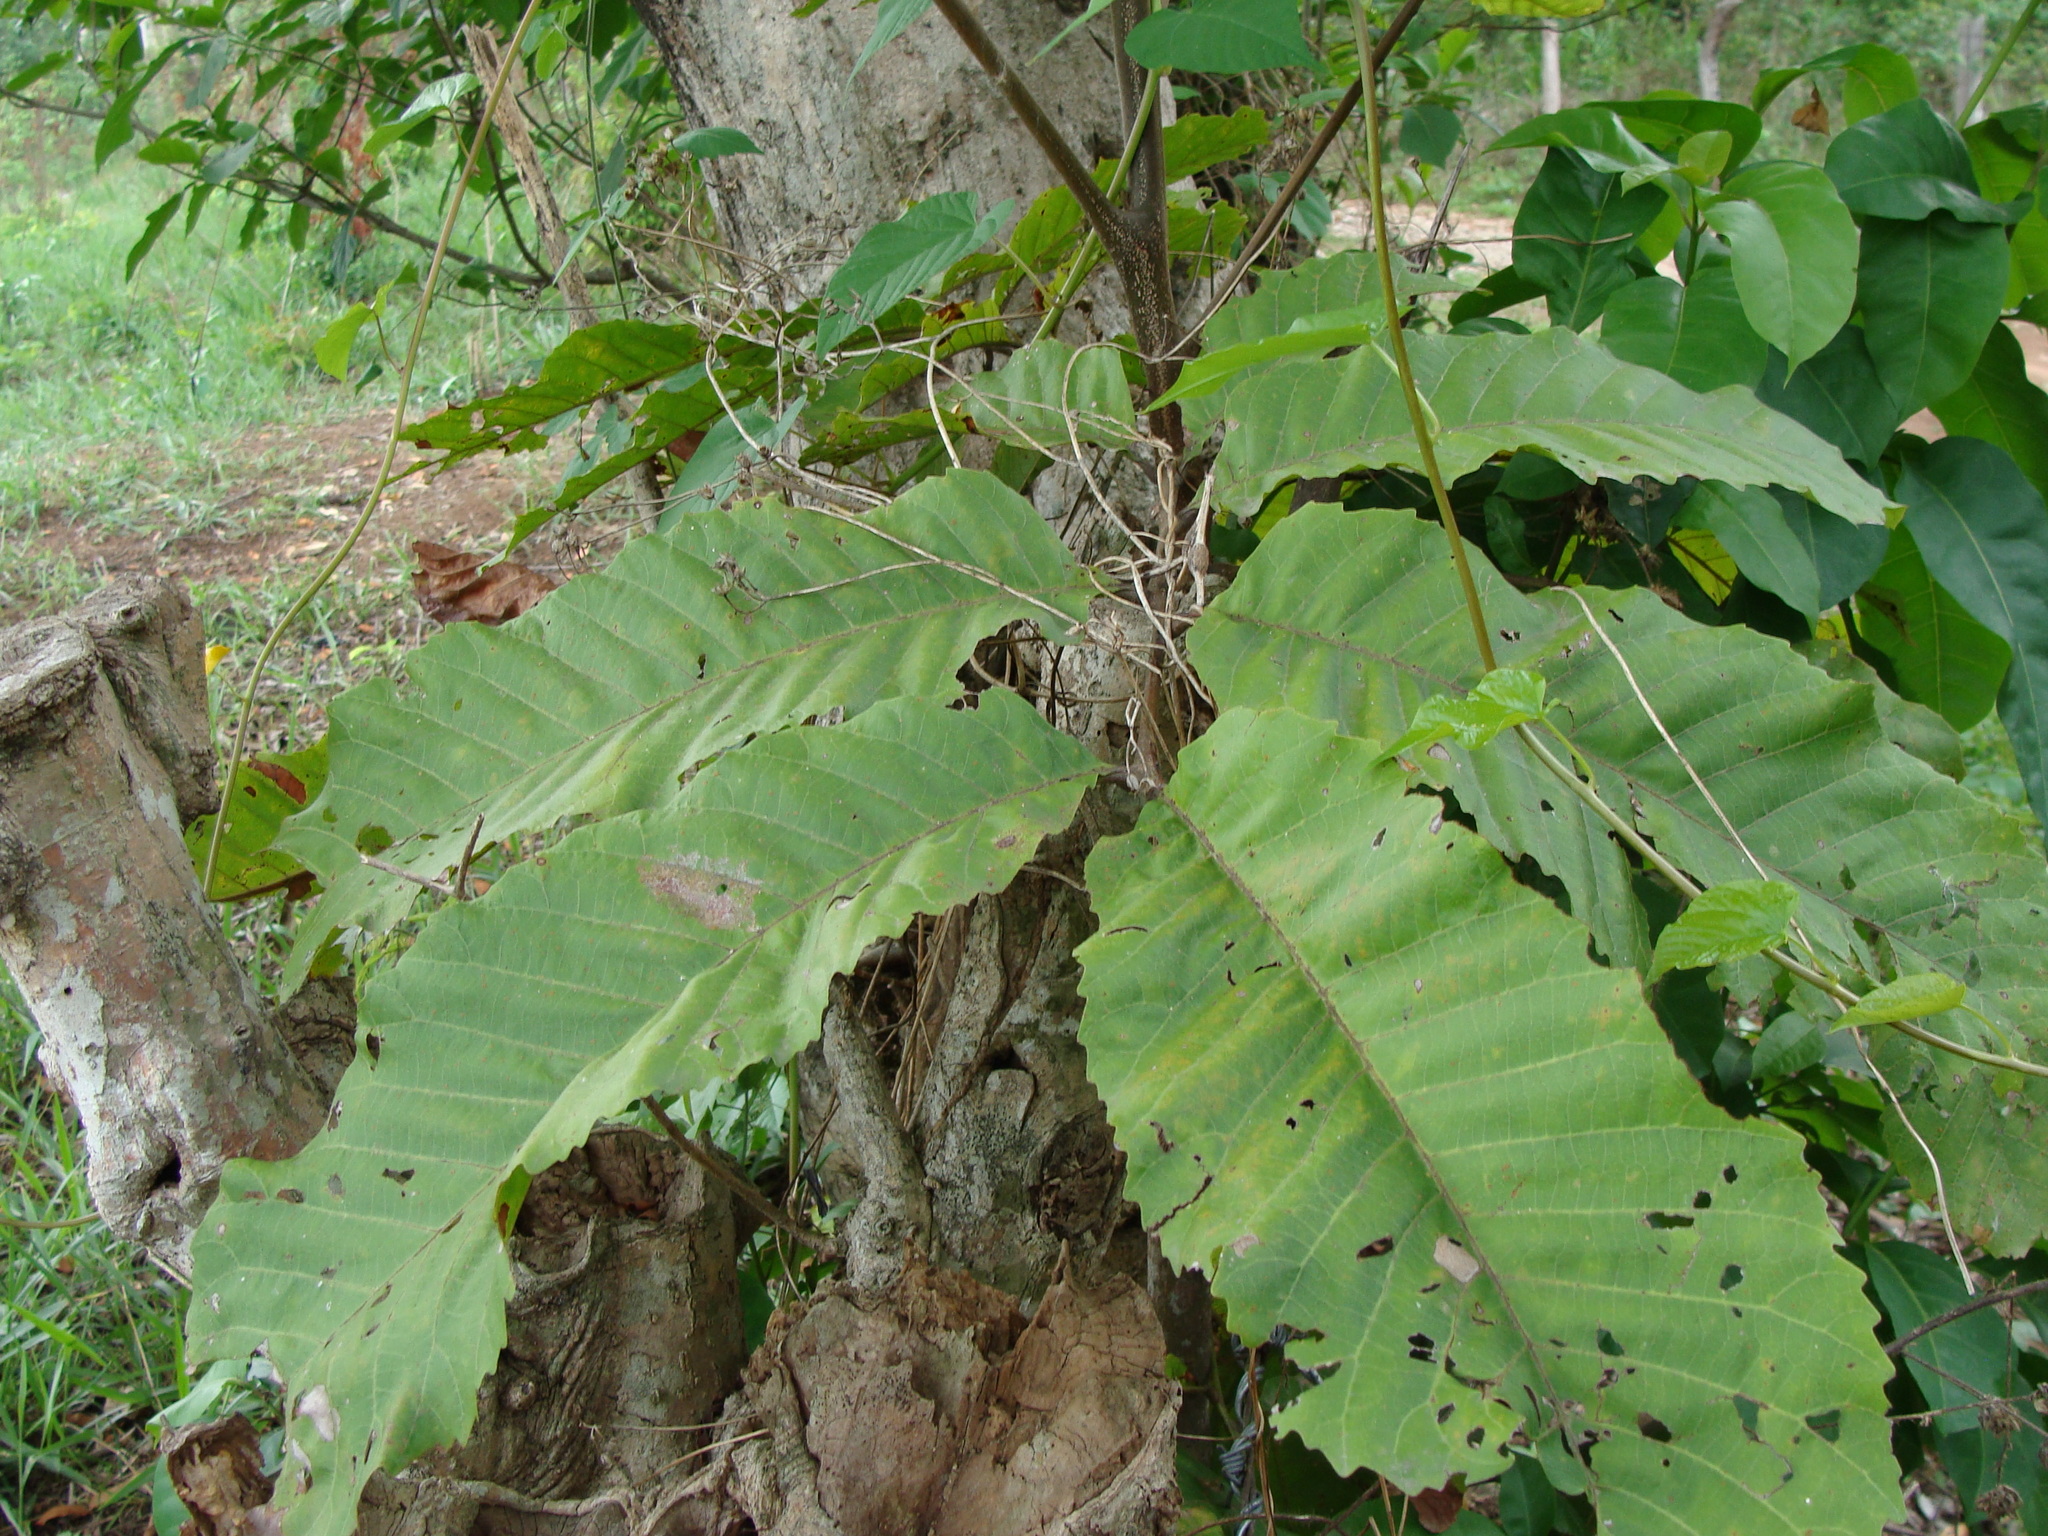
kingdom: Plantae
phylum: Tracheophyta
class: Magnoliopsida
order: Sapindales
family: Sapindaceae
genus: Cupania
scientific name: Cupania dentata
